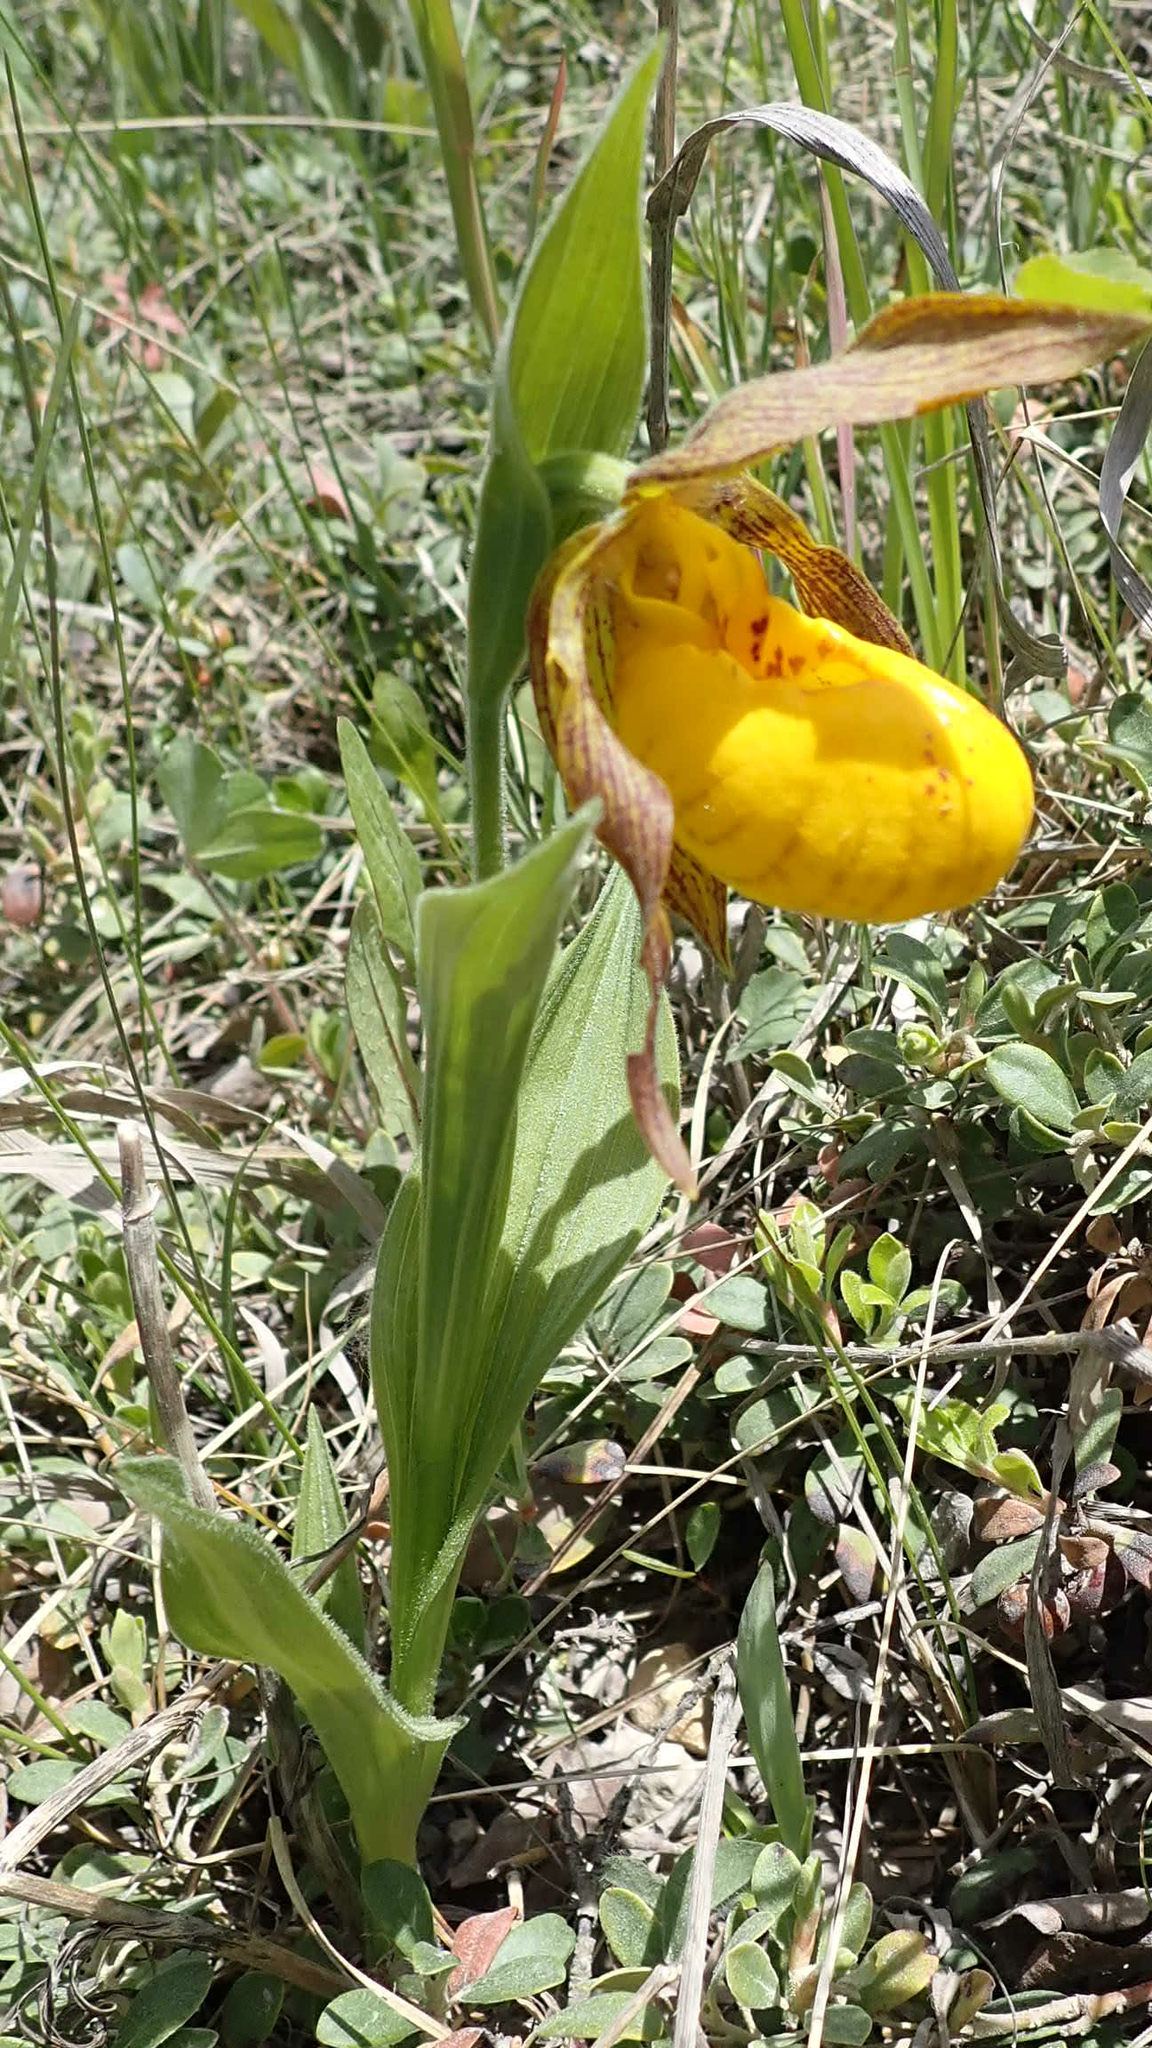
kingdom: Plantae
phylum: Tracheophyta
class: Liliopsida
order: Asparagales
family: Orchidaceae
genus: Cypripedium
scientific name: Cypripedium parviflorum
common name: American yellow lady's-slipper
